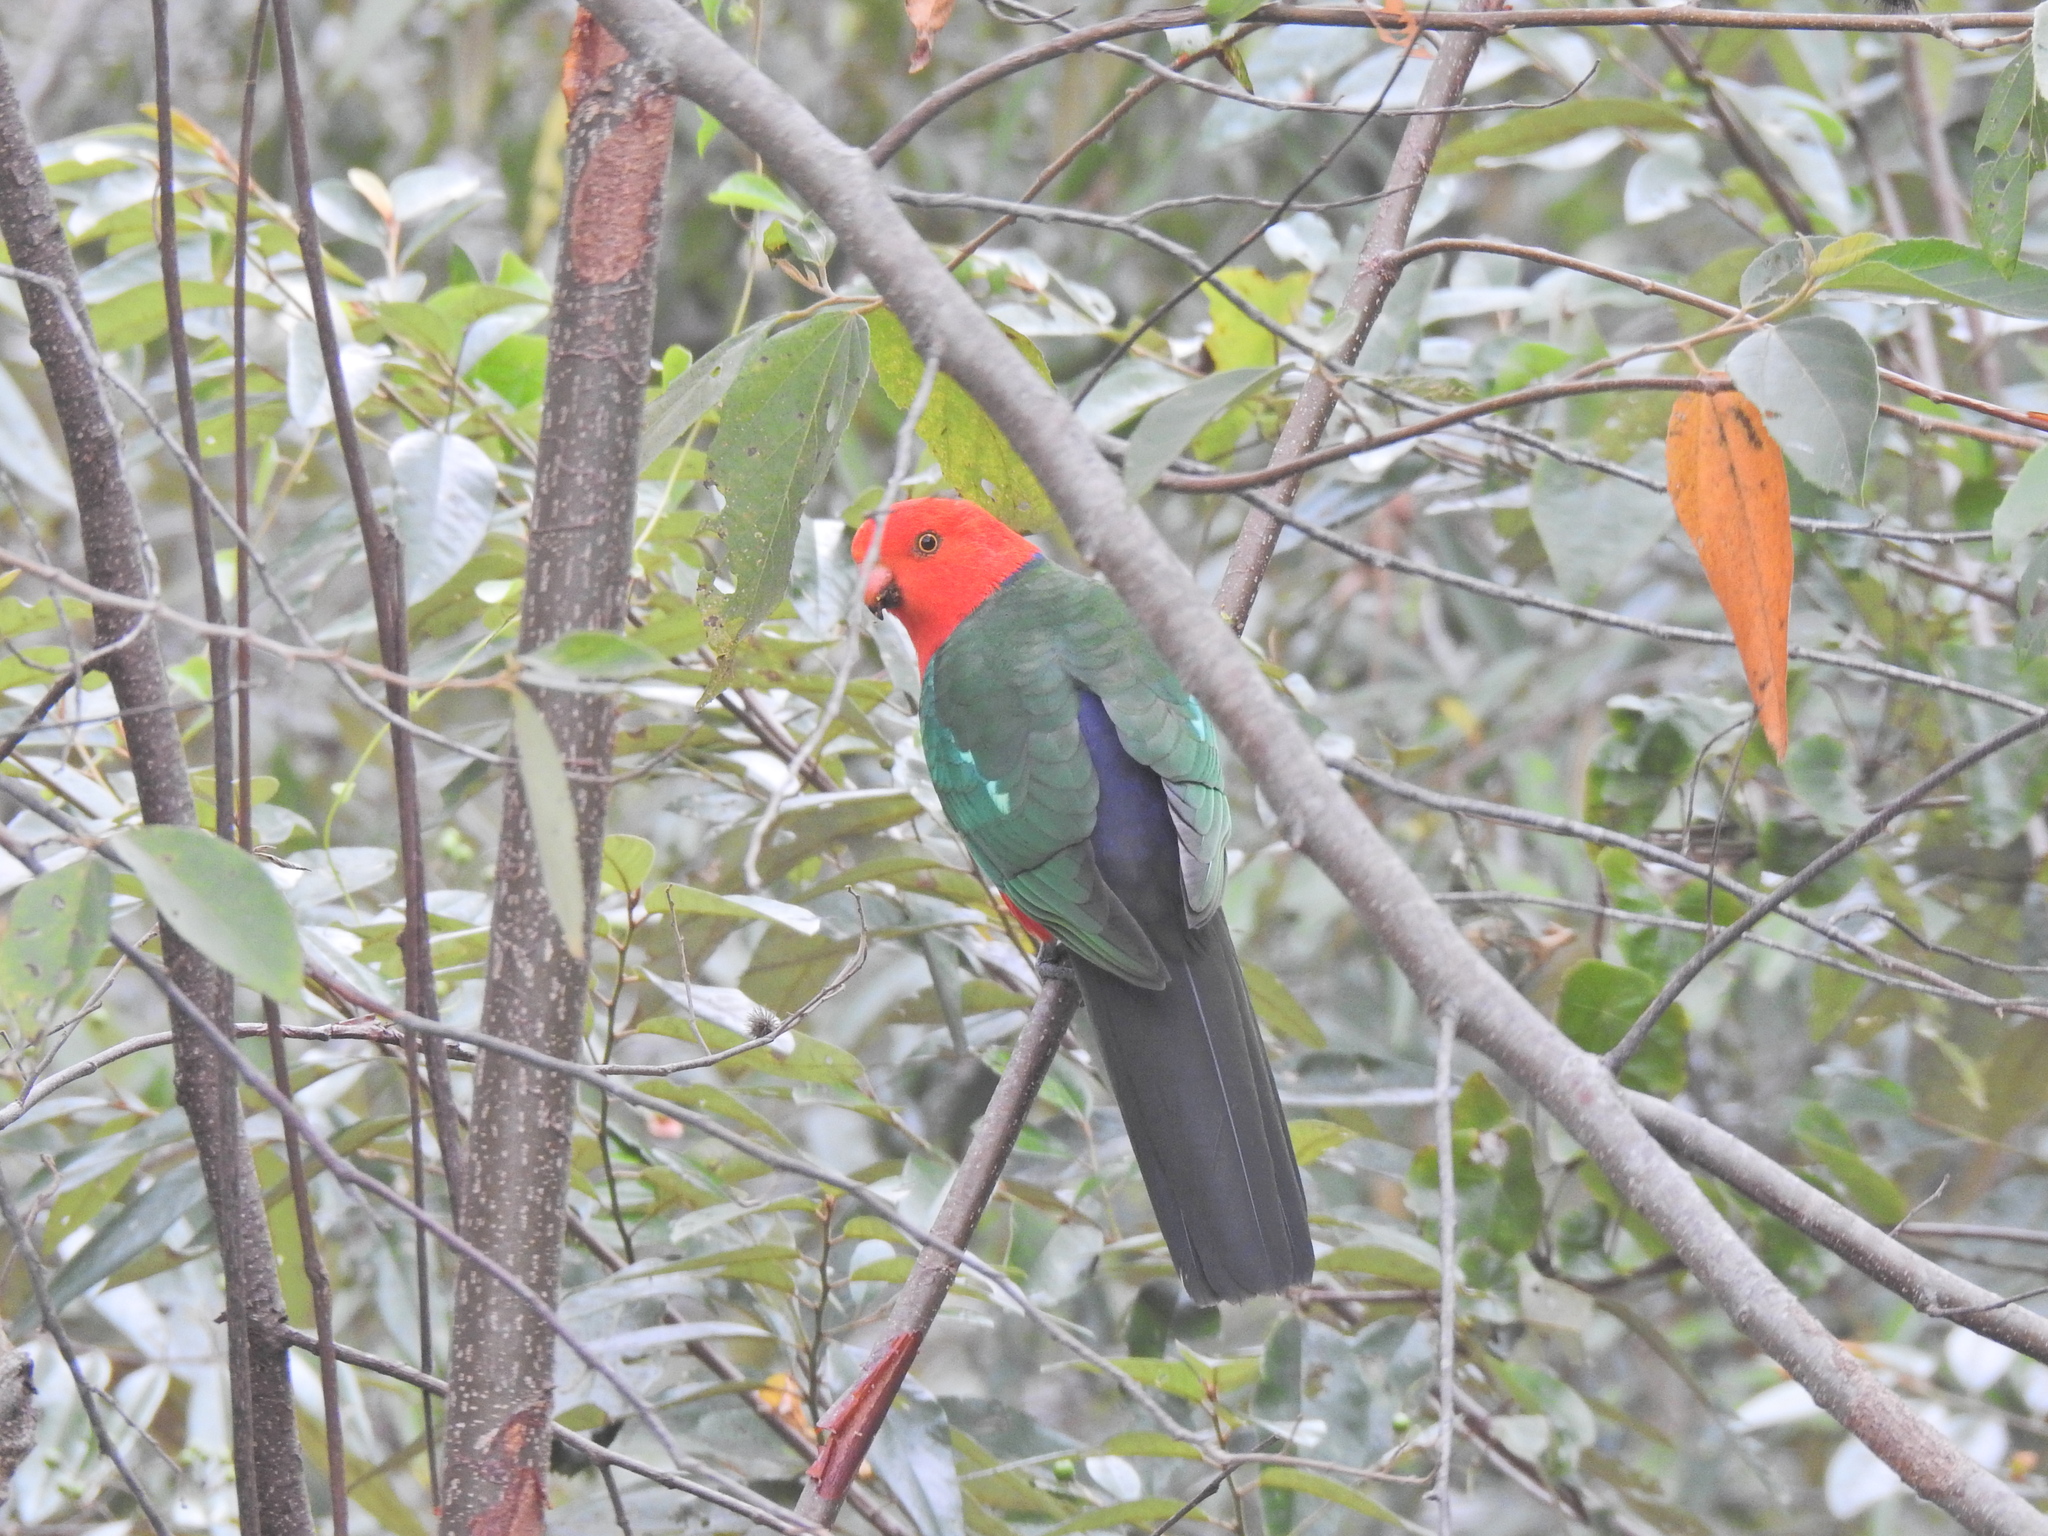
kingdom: Animalia
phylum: Chordata
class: Aves
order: Psittaciformes
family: Psittacidae
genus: Alisterus
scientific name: Alisterus scapularis
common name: Australian king parrot
